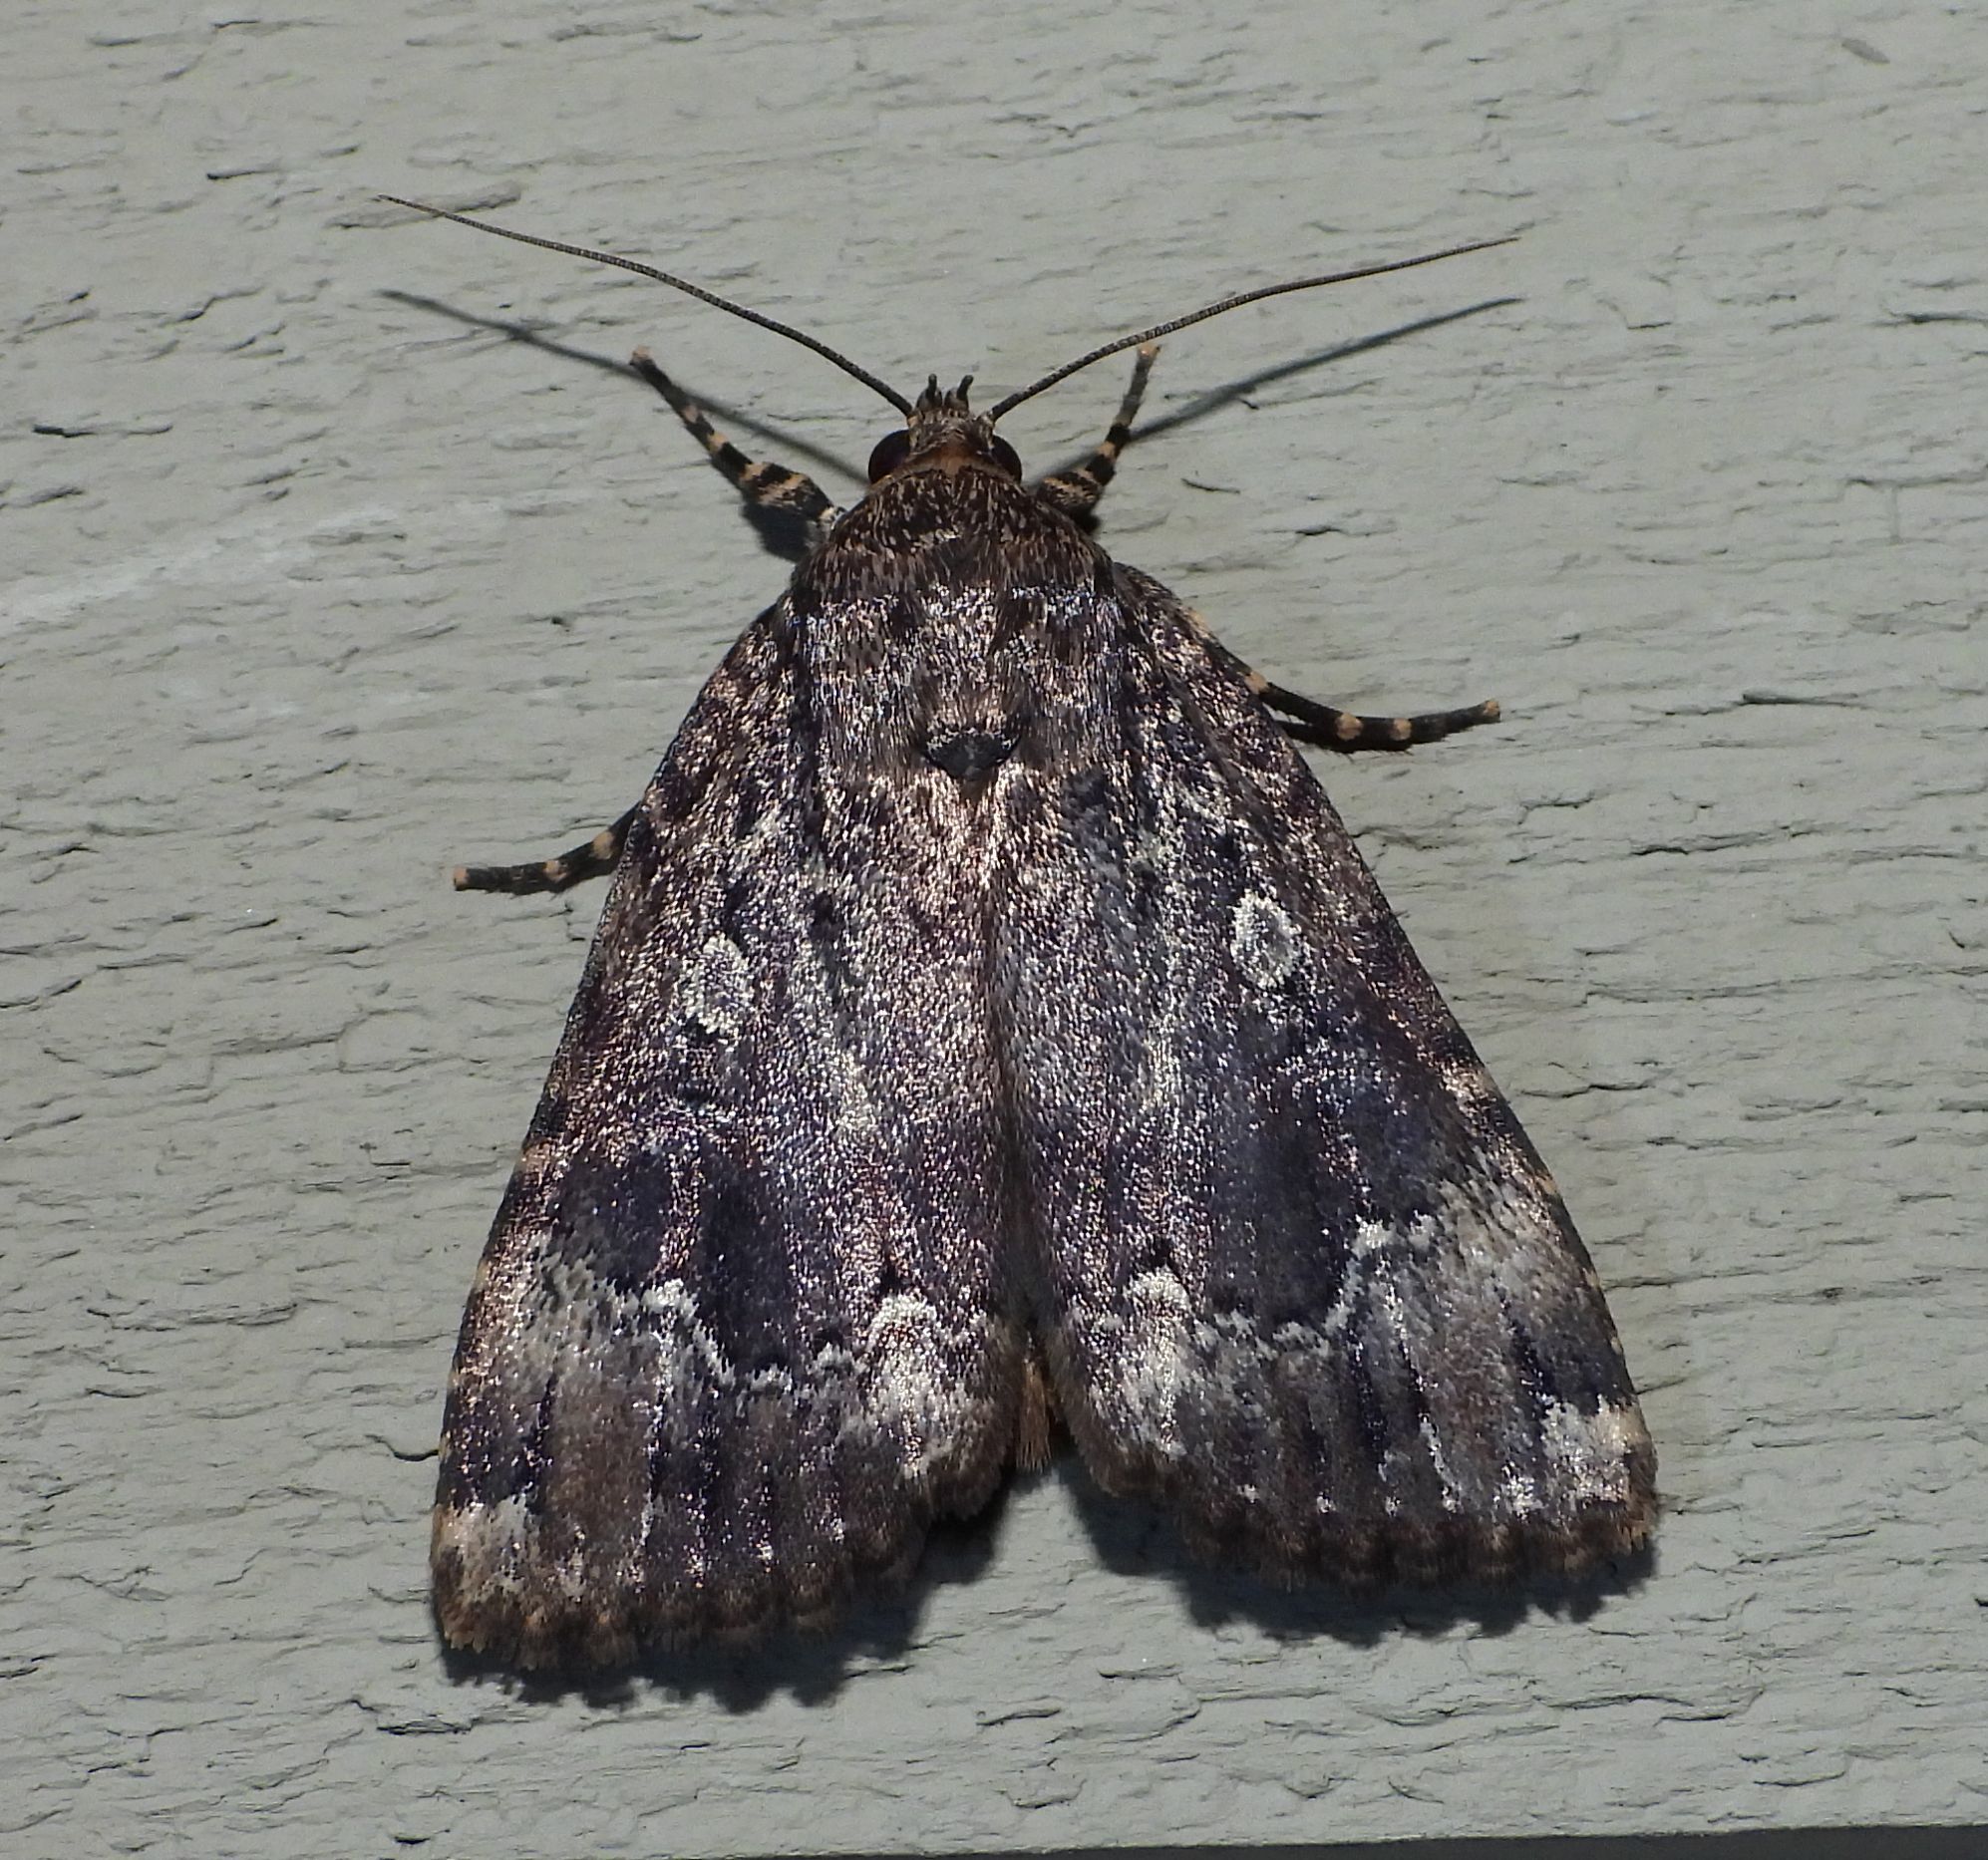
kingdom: Animalia
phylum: Arthropoda
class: Insecta
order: Lepidoptera
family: Noctuidae
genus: Amphipyra
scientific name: Amphipyra pyramidoides
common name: American copper underwing
